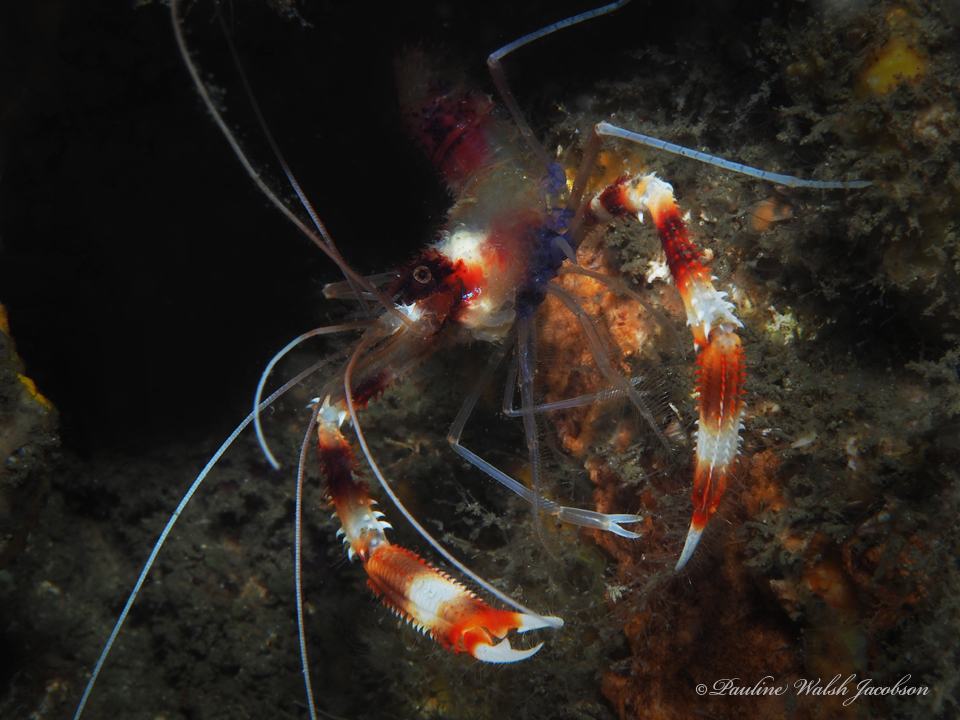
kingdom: Animalia
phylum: Arthropoda
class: Malacostraca
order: Decapoda
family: Stenopodidae
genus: Stenopus
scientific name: Stenopus hispidus
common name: Banded coral shrimp
